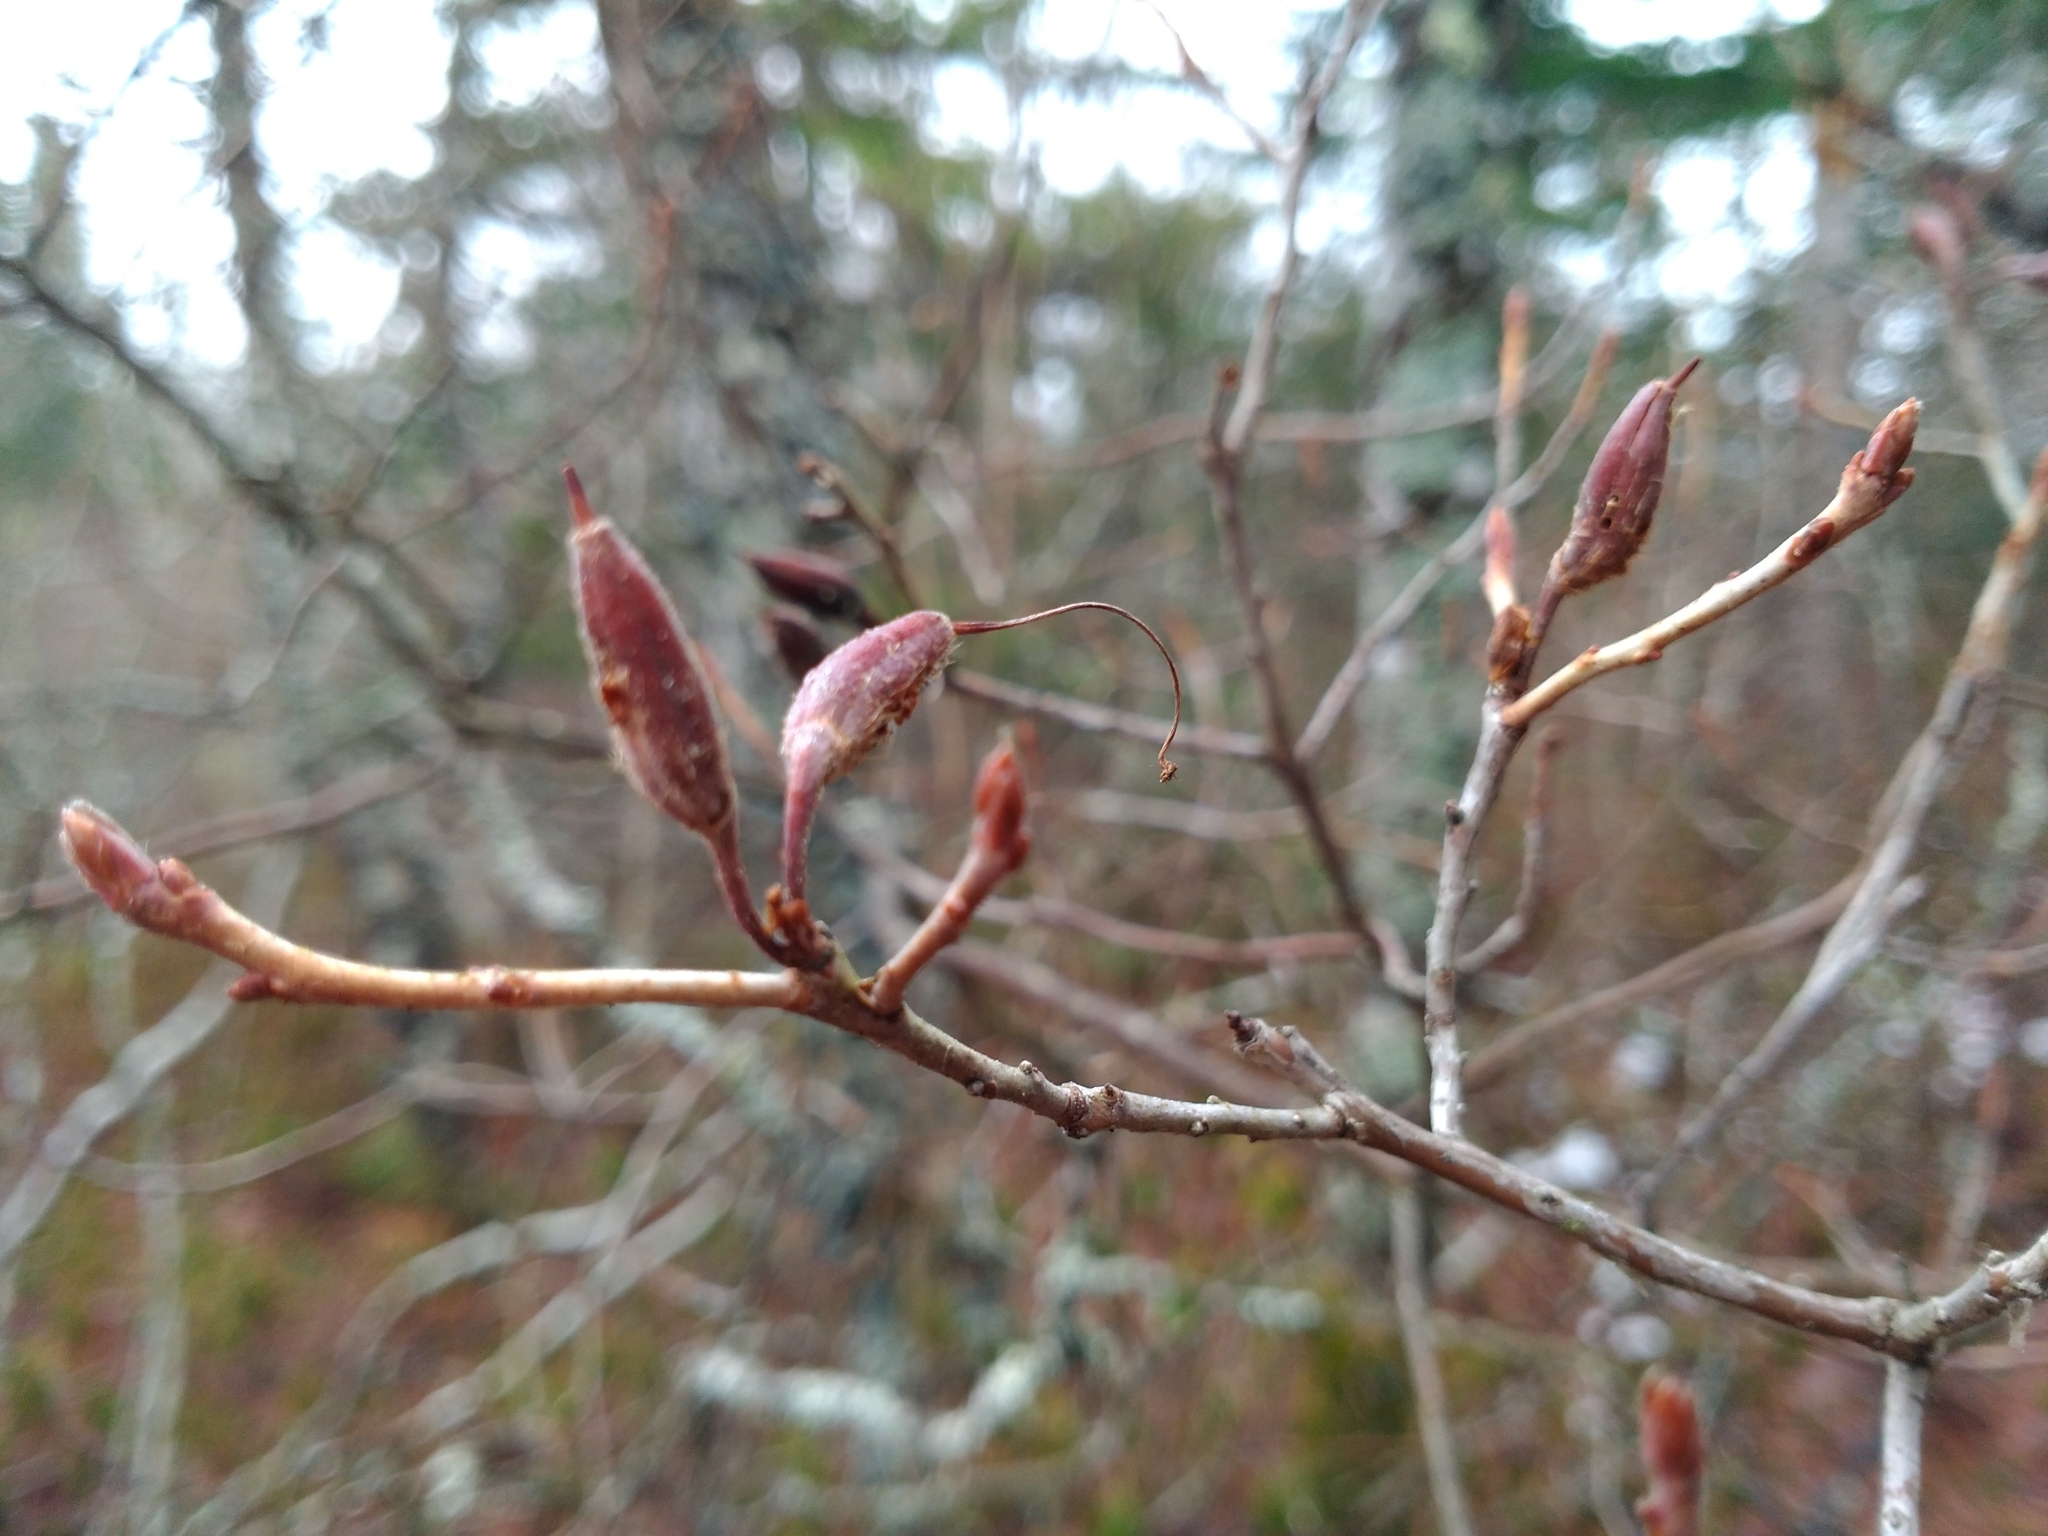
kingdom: Plantae
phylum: Tracheophyta
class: Magnoliopsida
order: Ericales
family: Ericaceae
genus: Rhododendron
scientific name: Rhododendron canadense
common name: Rhodora
